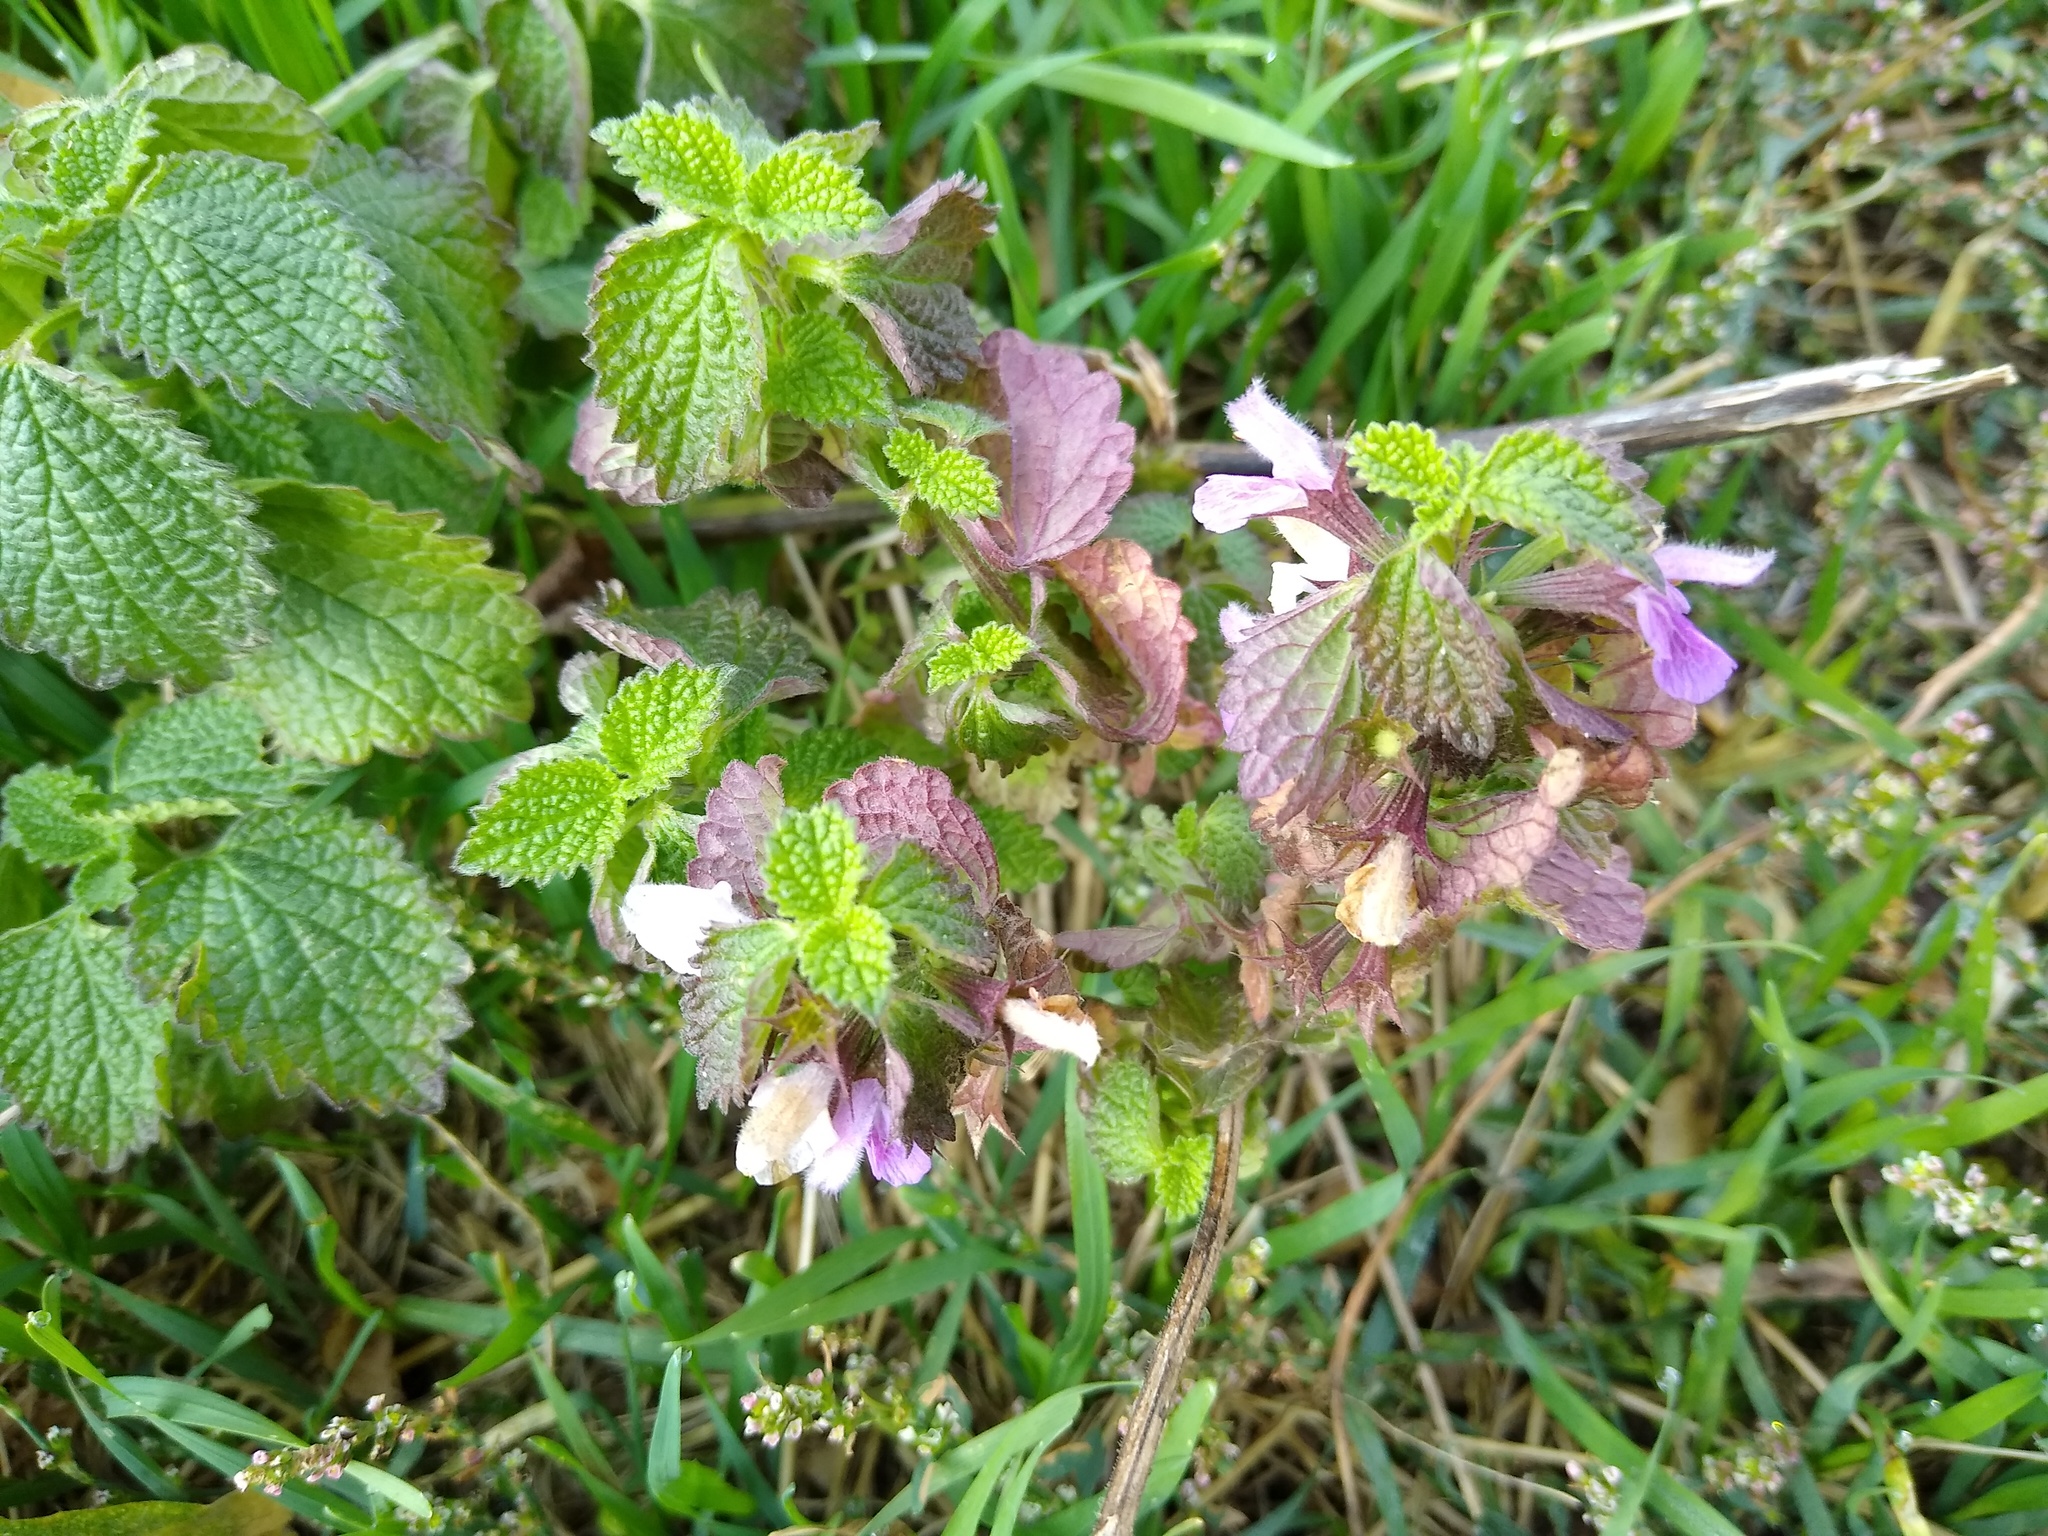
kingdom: Plantae
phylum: Tracheophyta
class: Magnoliopsida
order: Lamiales
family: Lamiaceae
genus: Ballota
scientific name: Ballota nigra
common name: Black horehound
